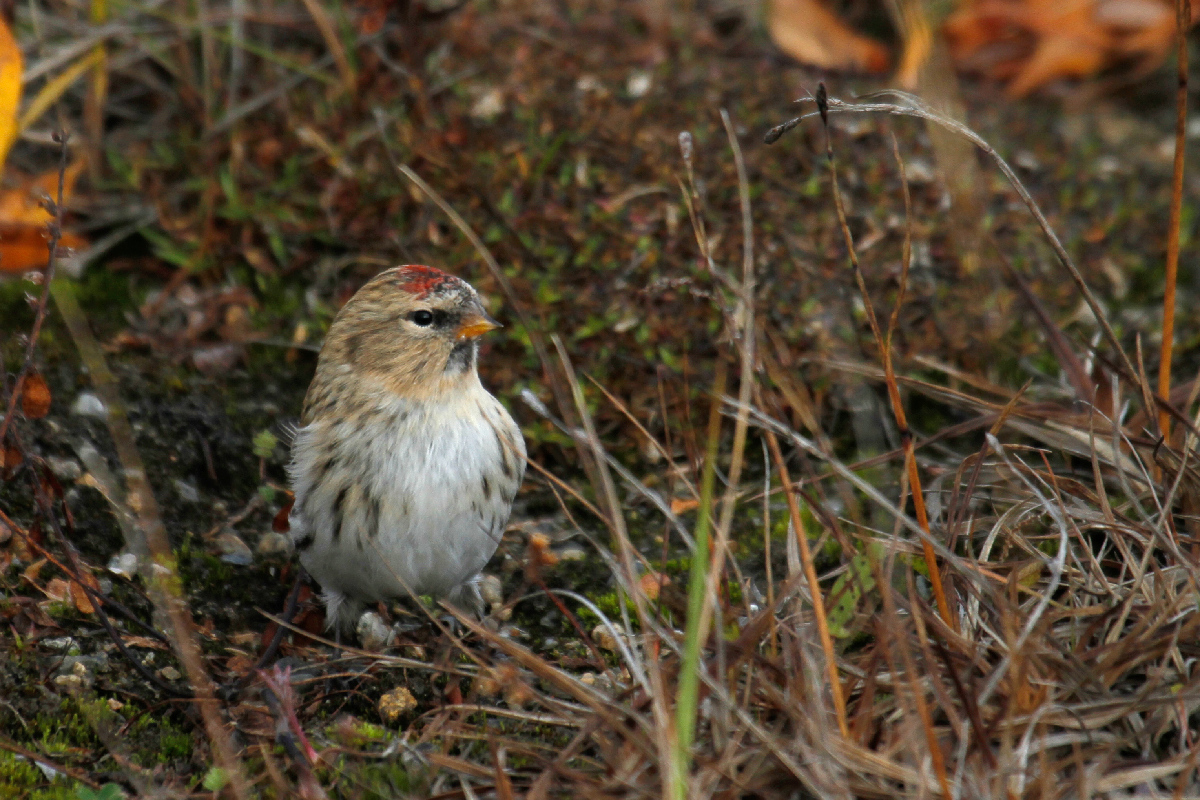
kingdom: Animalia
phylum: Chordata
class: Aves
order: Passeriformes
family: Fringillidae
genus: Acanthis
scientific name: Acanthis flammea
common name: Common redpoll
